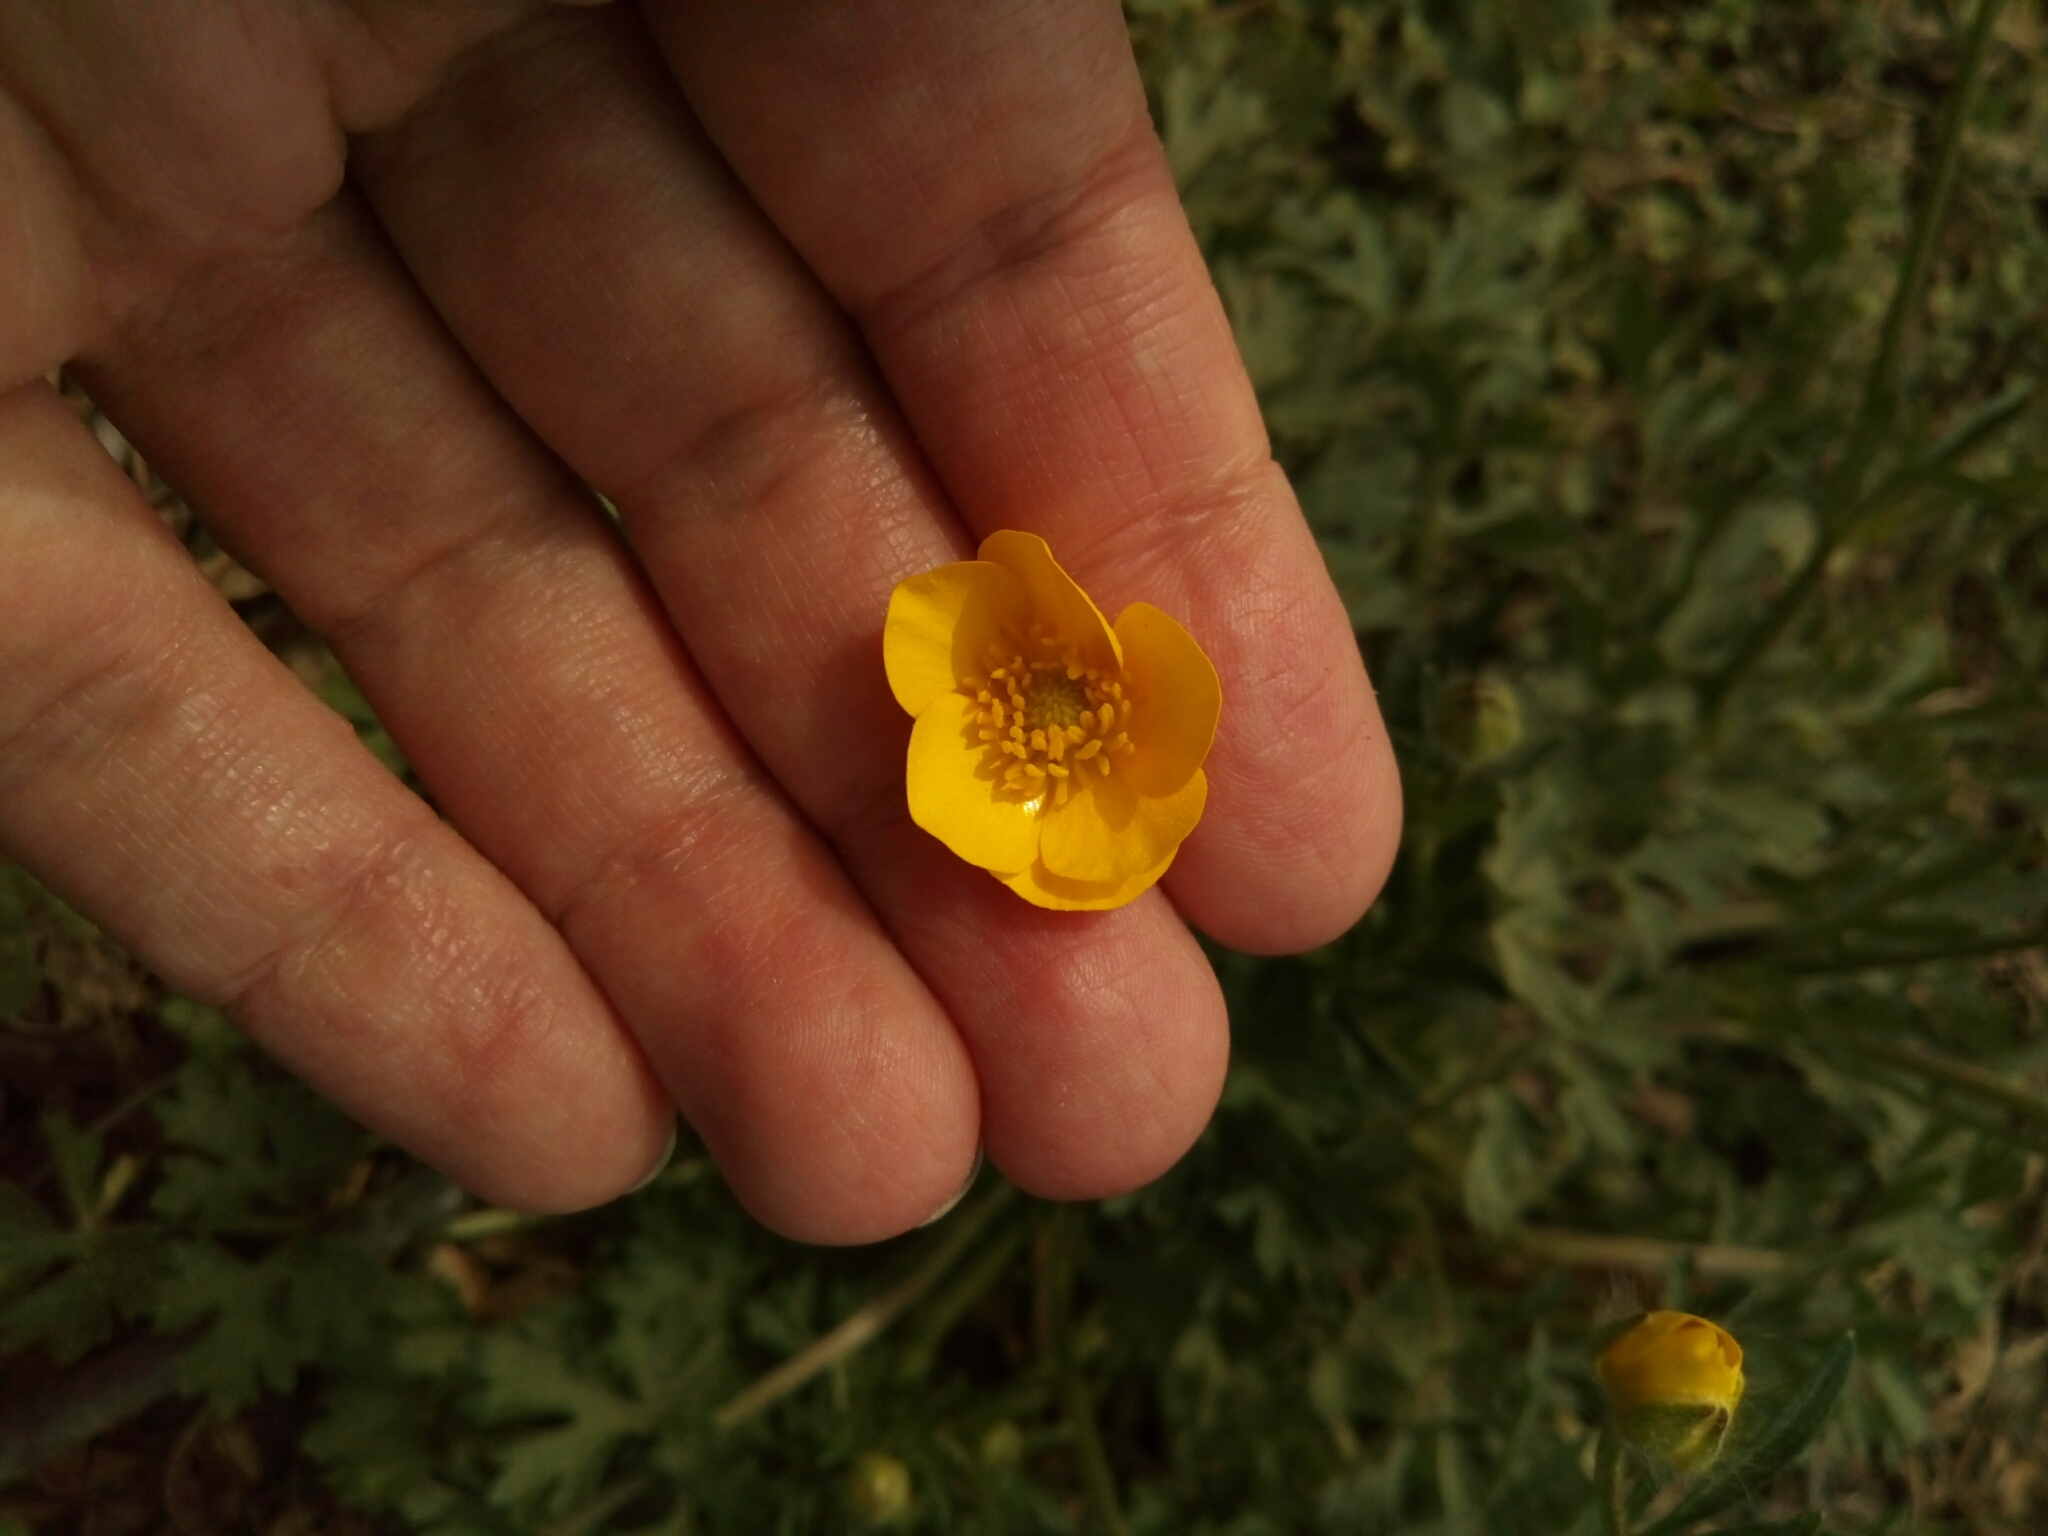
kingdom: Plantae
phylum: Tracheophyta
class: Magnoliopsida
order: Ranunculales
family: Ranunculaceae
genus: Ranunculus
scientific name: Ranunculus bulbosus
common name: Bulbous buttercup
